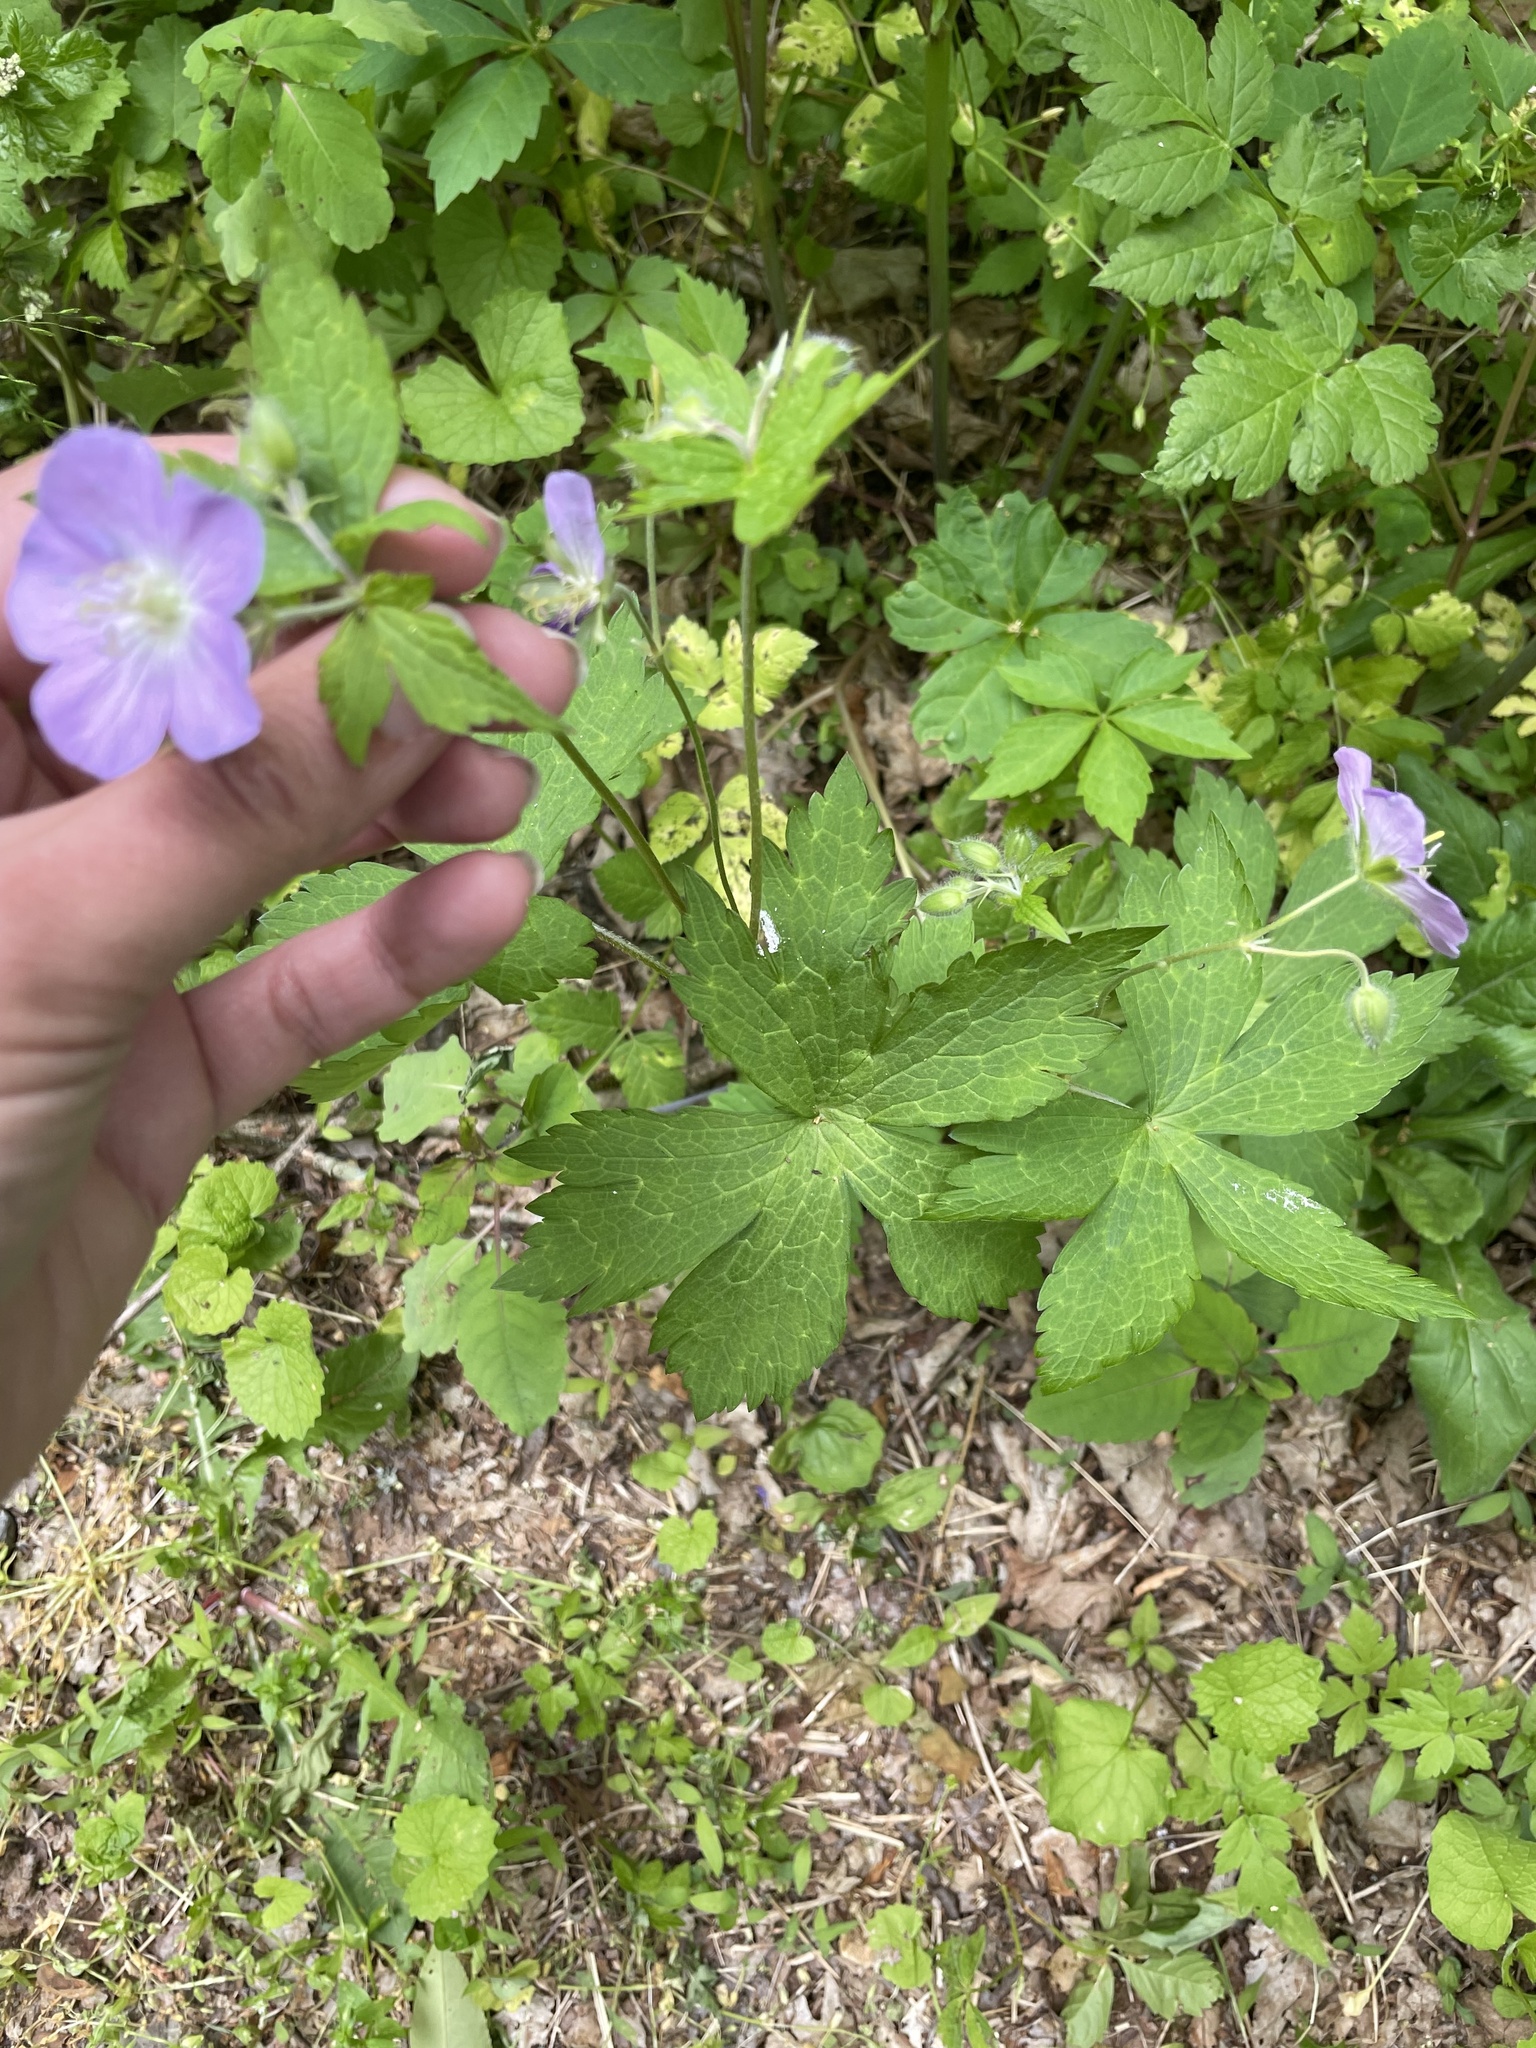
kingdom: Plantae
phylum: Tracheophyta
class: Magnoliopsida
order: Geraniales
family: Geraniaceae
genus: Geranium
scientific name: Geranium maculatum
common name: Spotted geranium
